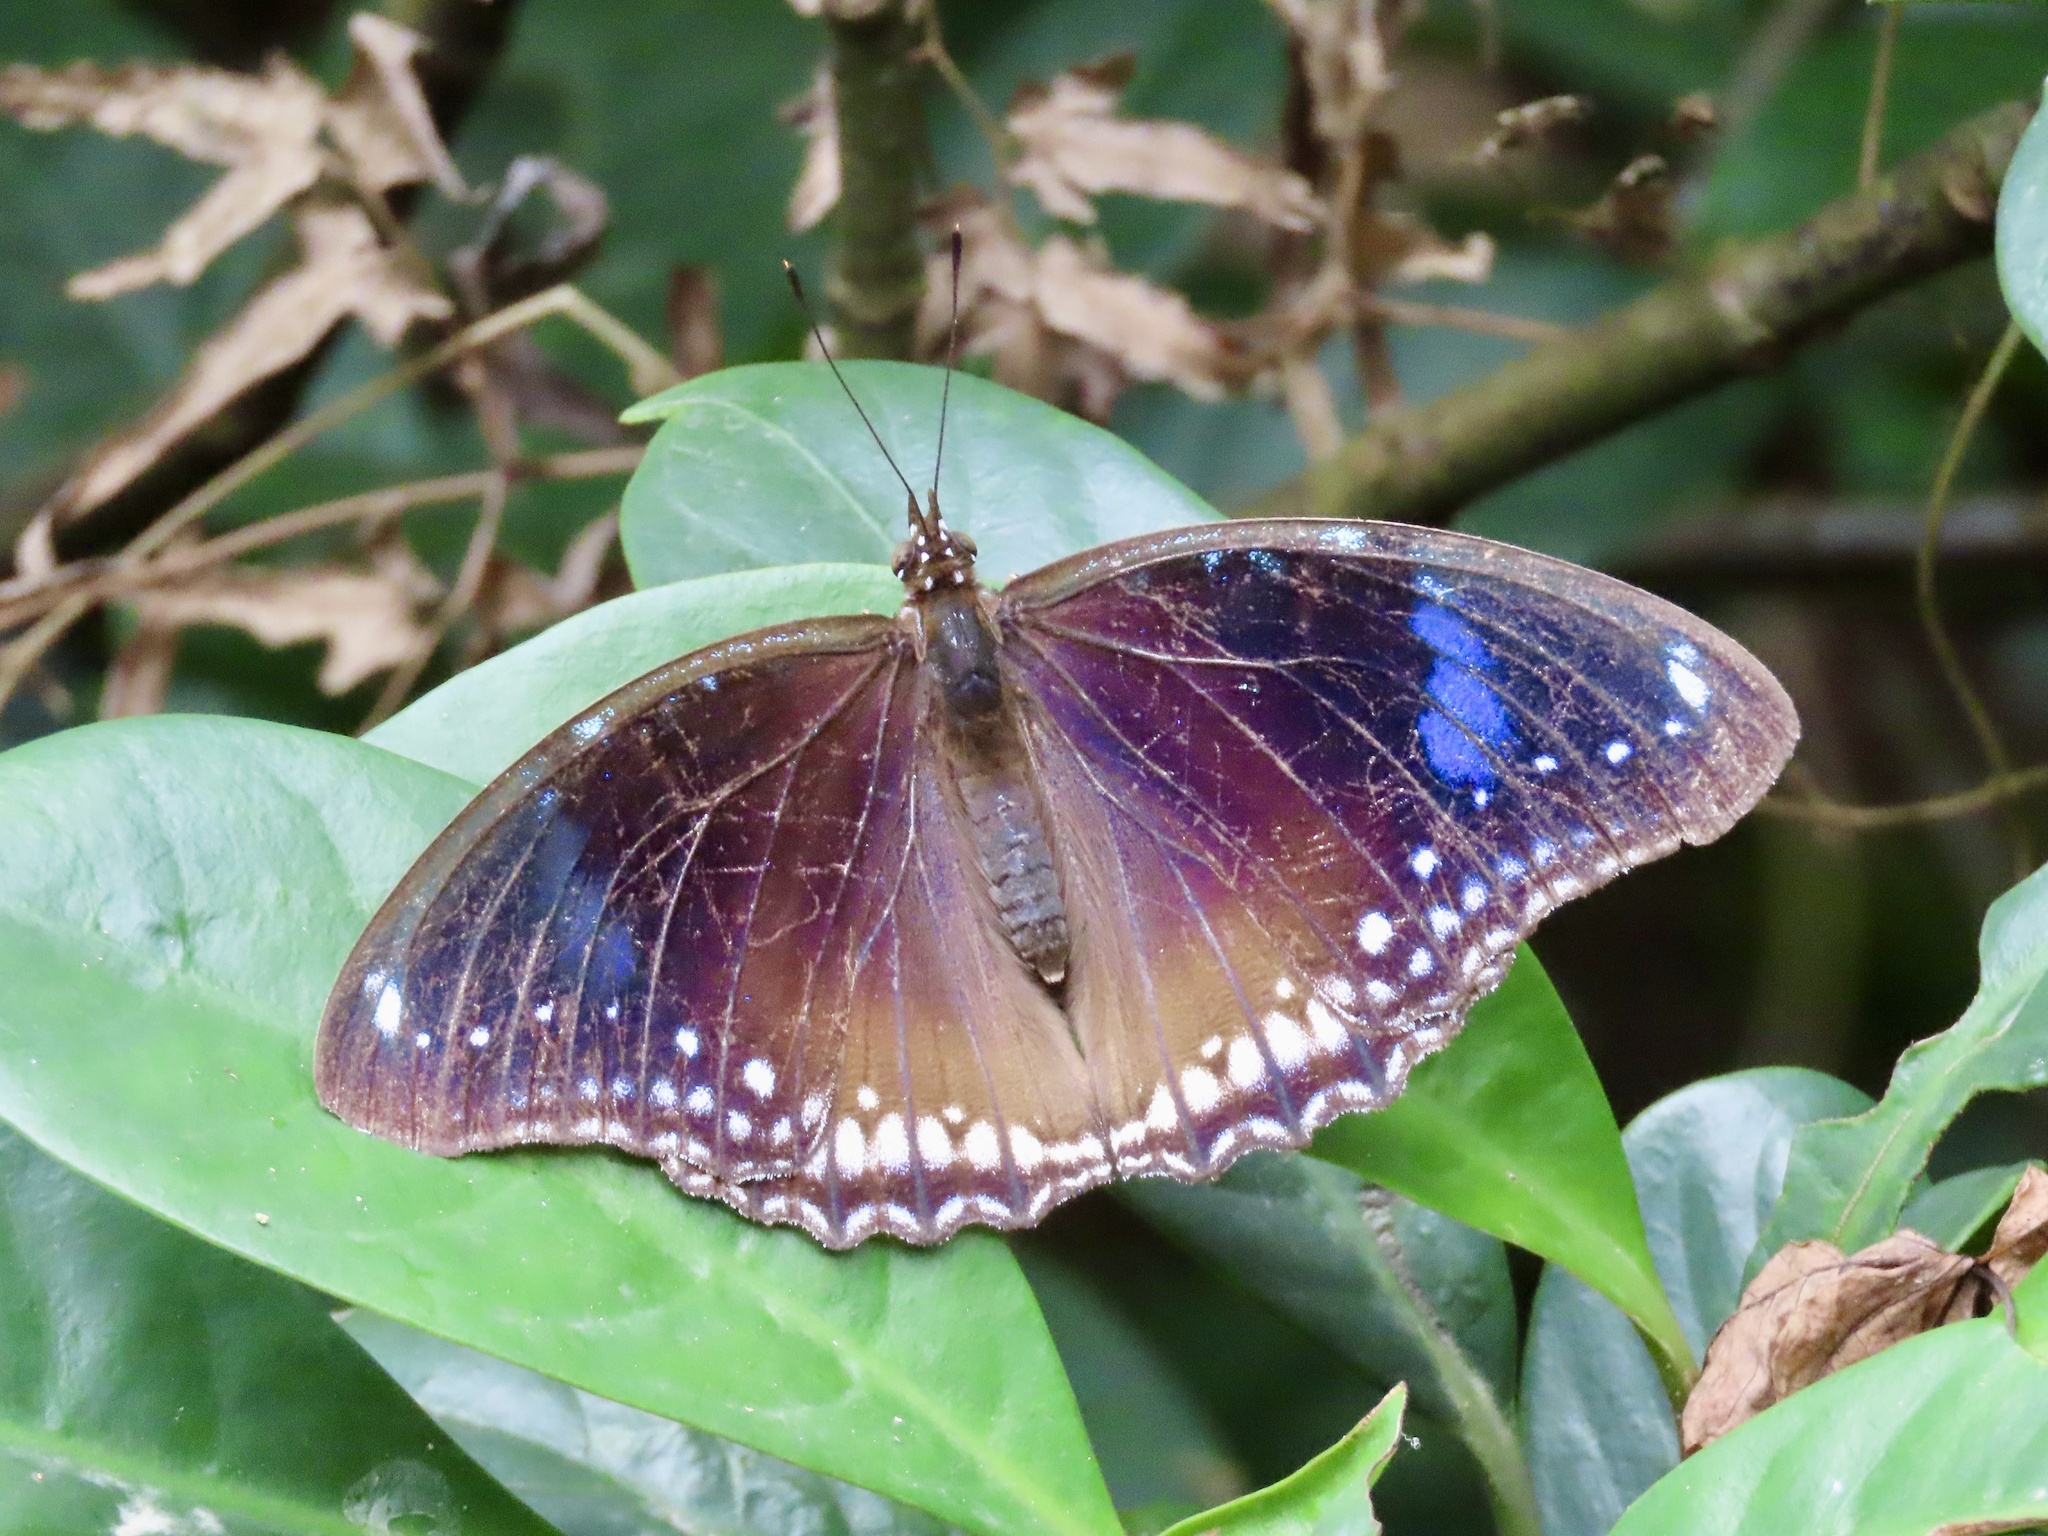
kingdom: Animalia
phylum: Arthropoda
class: Insecta
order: Lepidoptera
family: Nymphalidae
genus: Hypolimnas
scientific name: Hypolimnas bolina
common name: Great eggfly
